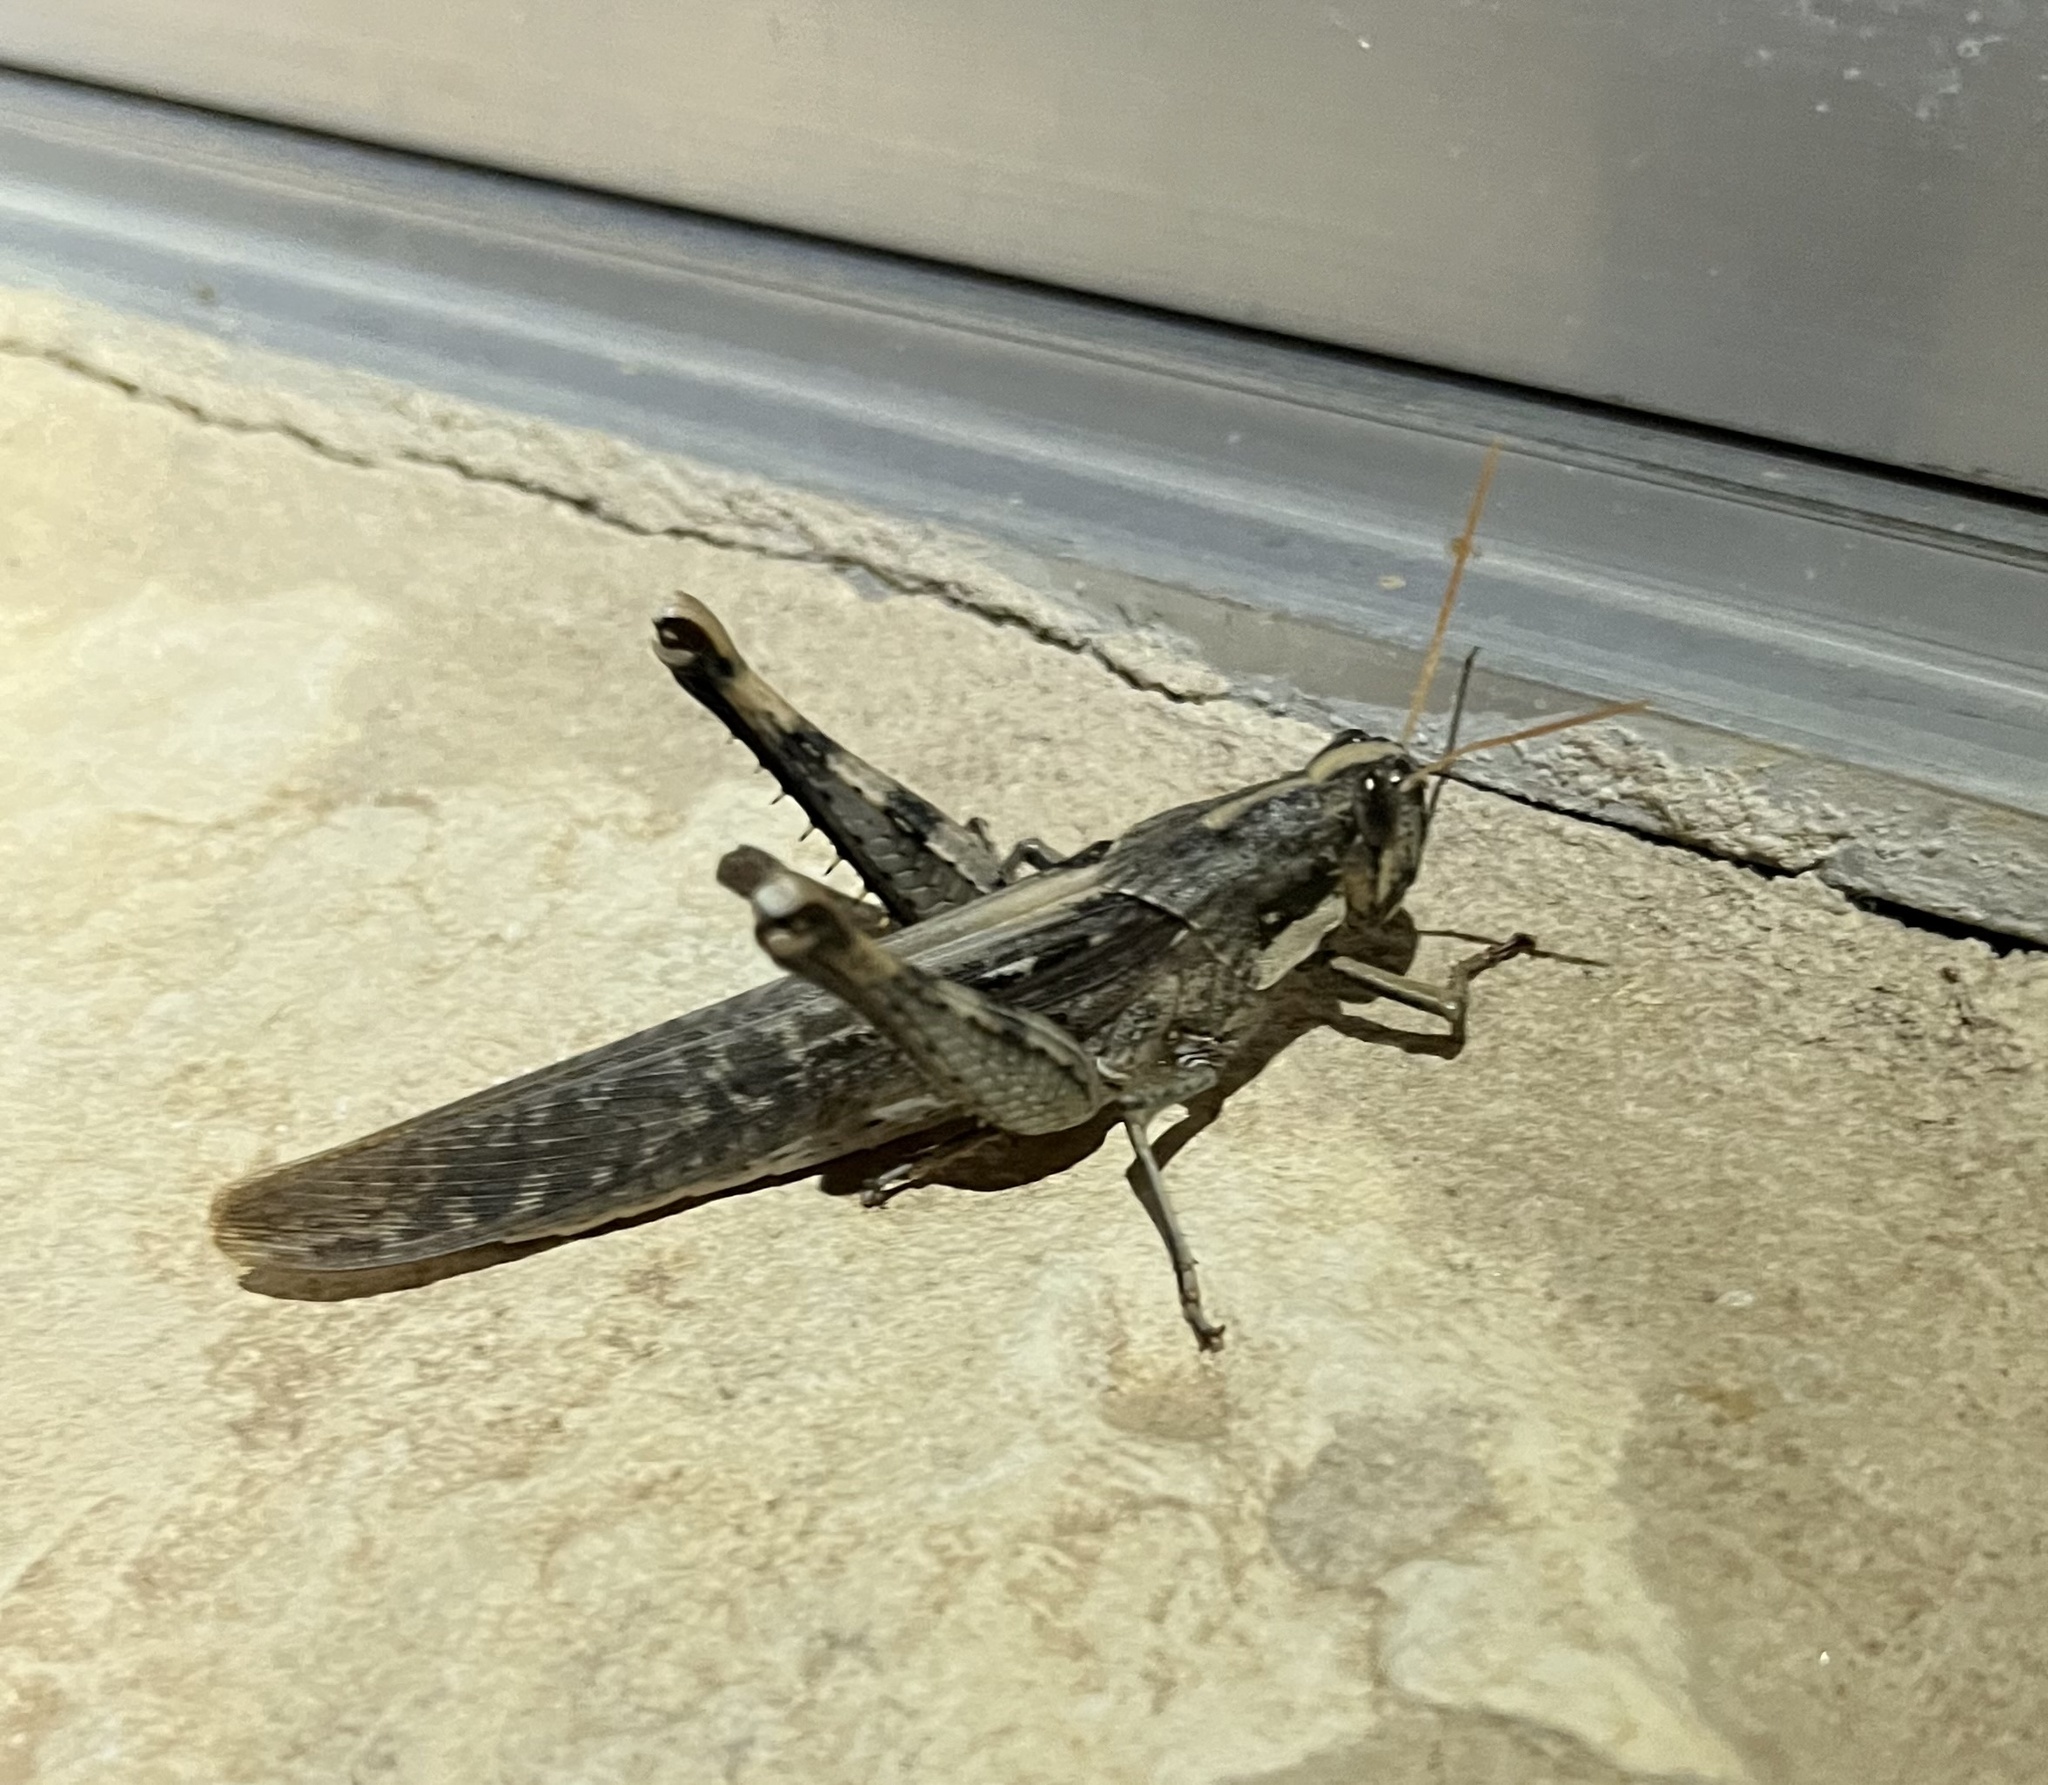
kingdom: Animalia
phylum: Arthropoda
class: Insecta
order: Orthoptera
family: Acrididae
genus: Schistocerca
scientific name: Schistocerca nitens
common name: Vagrant grasshopper
